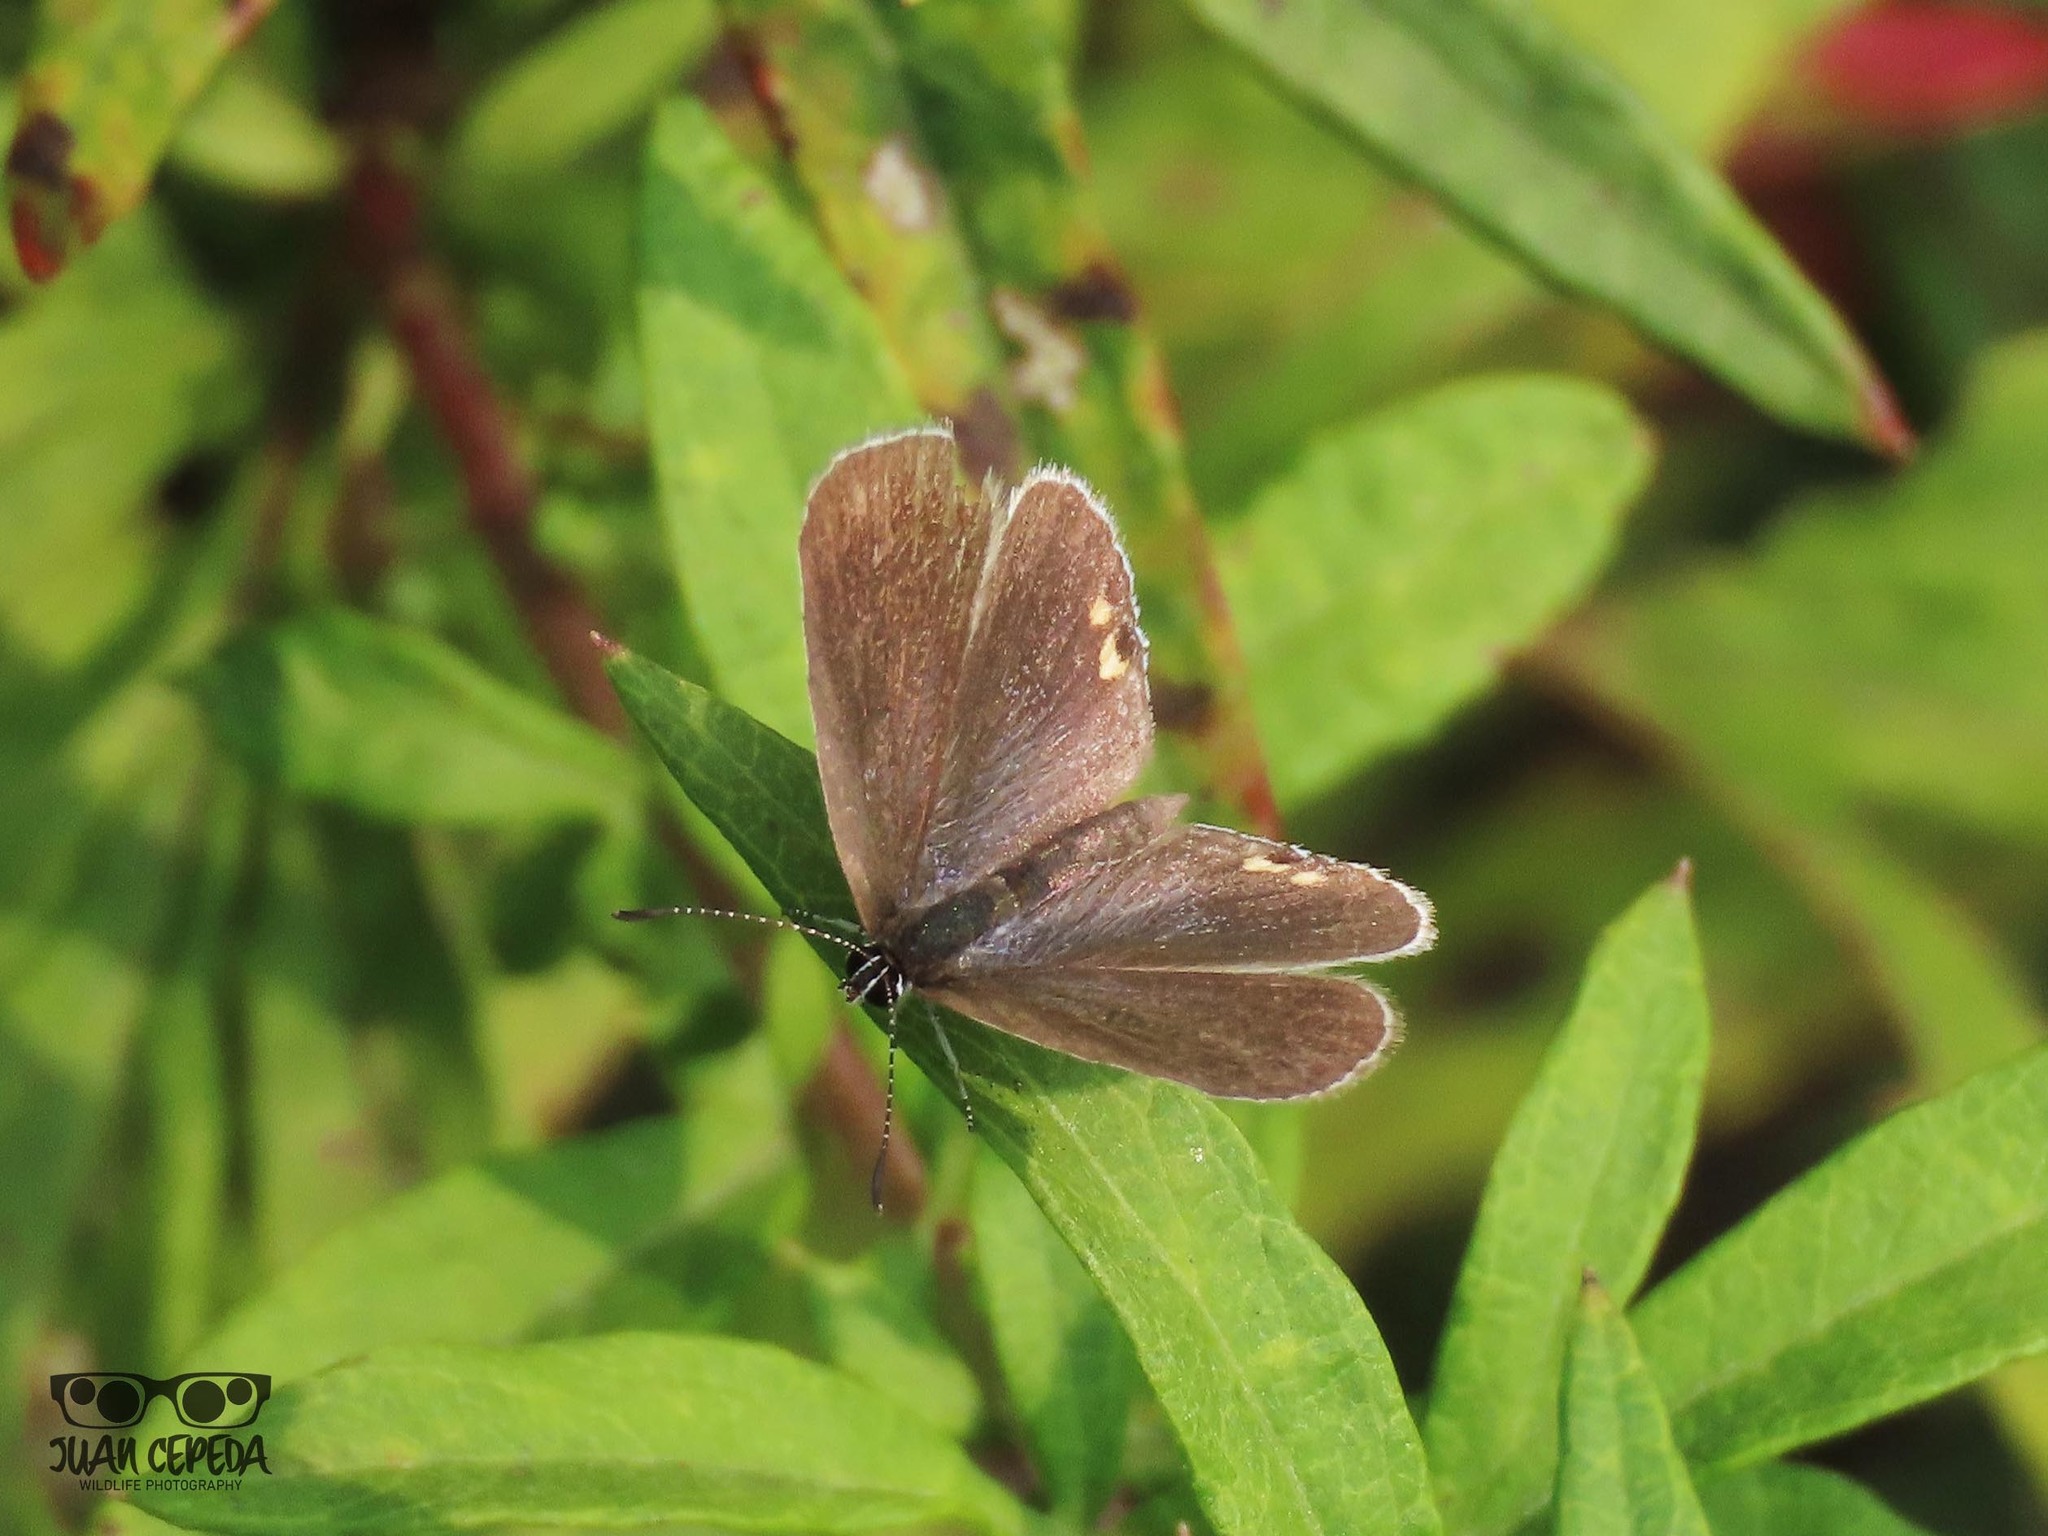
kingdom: Animalia
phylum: Arthropoda
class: Insecta
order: Lepidoptera
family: Lycaenidae
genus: Elkalyce
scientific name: Elkalyce comyntas
